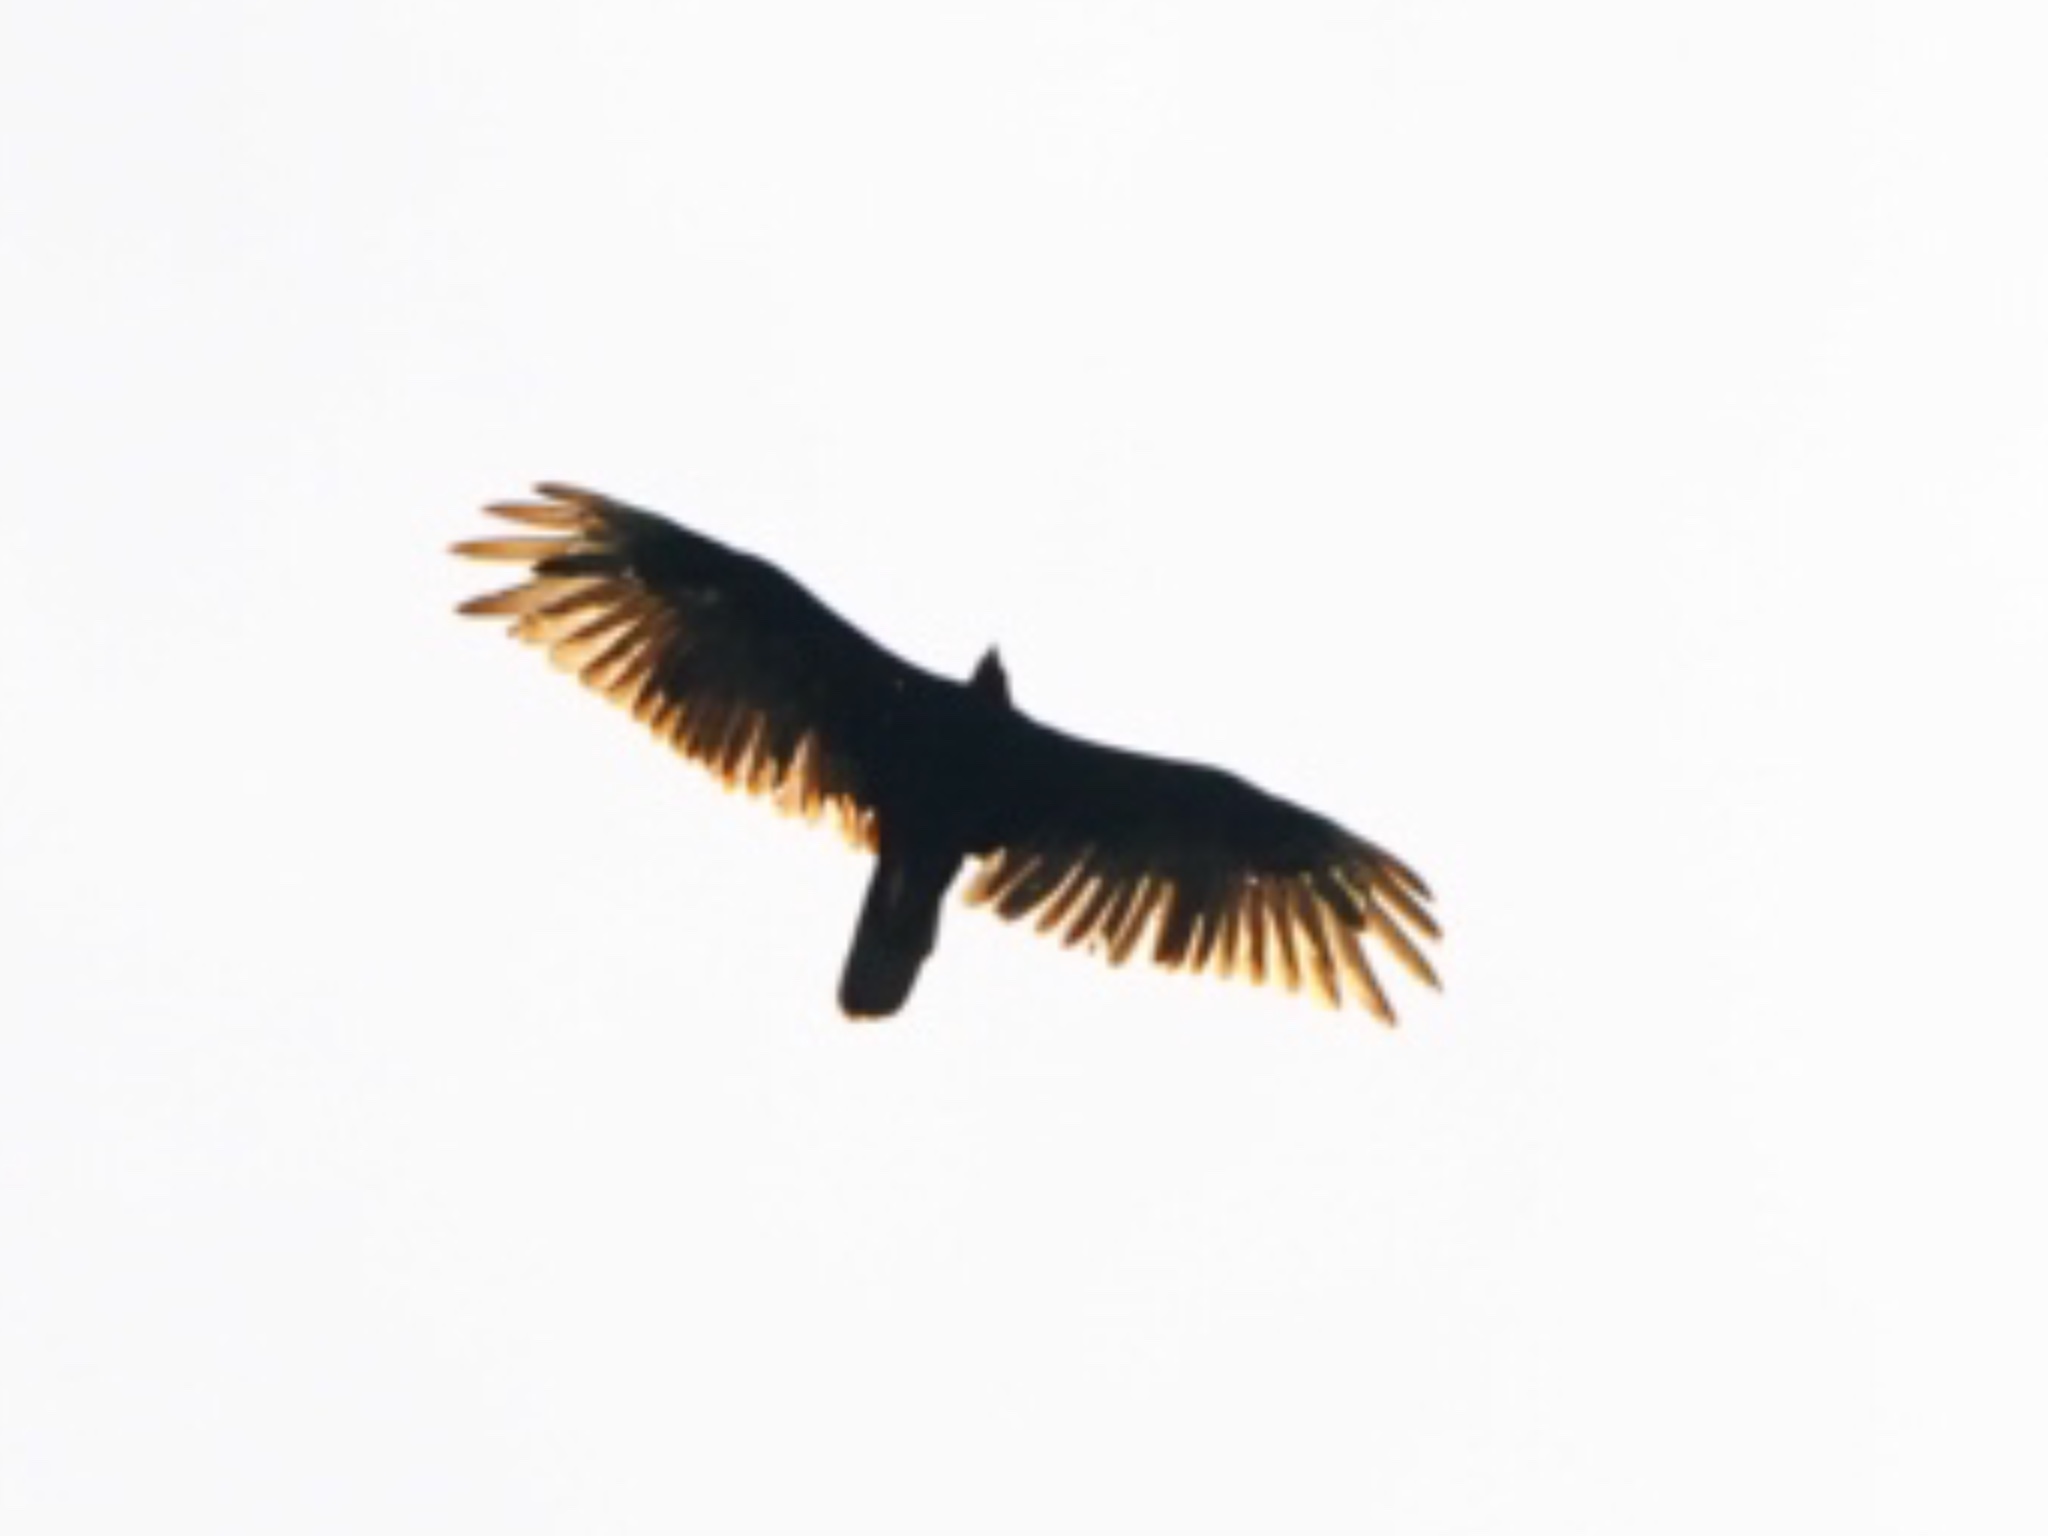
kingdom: Animalia
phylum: Chordata
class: Aves
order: Accipitriformes
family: Cathartidae
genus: Cathartes
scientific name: Cathartes aura
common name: Turkey vulture
